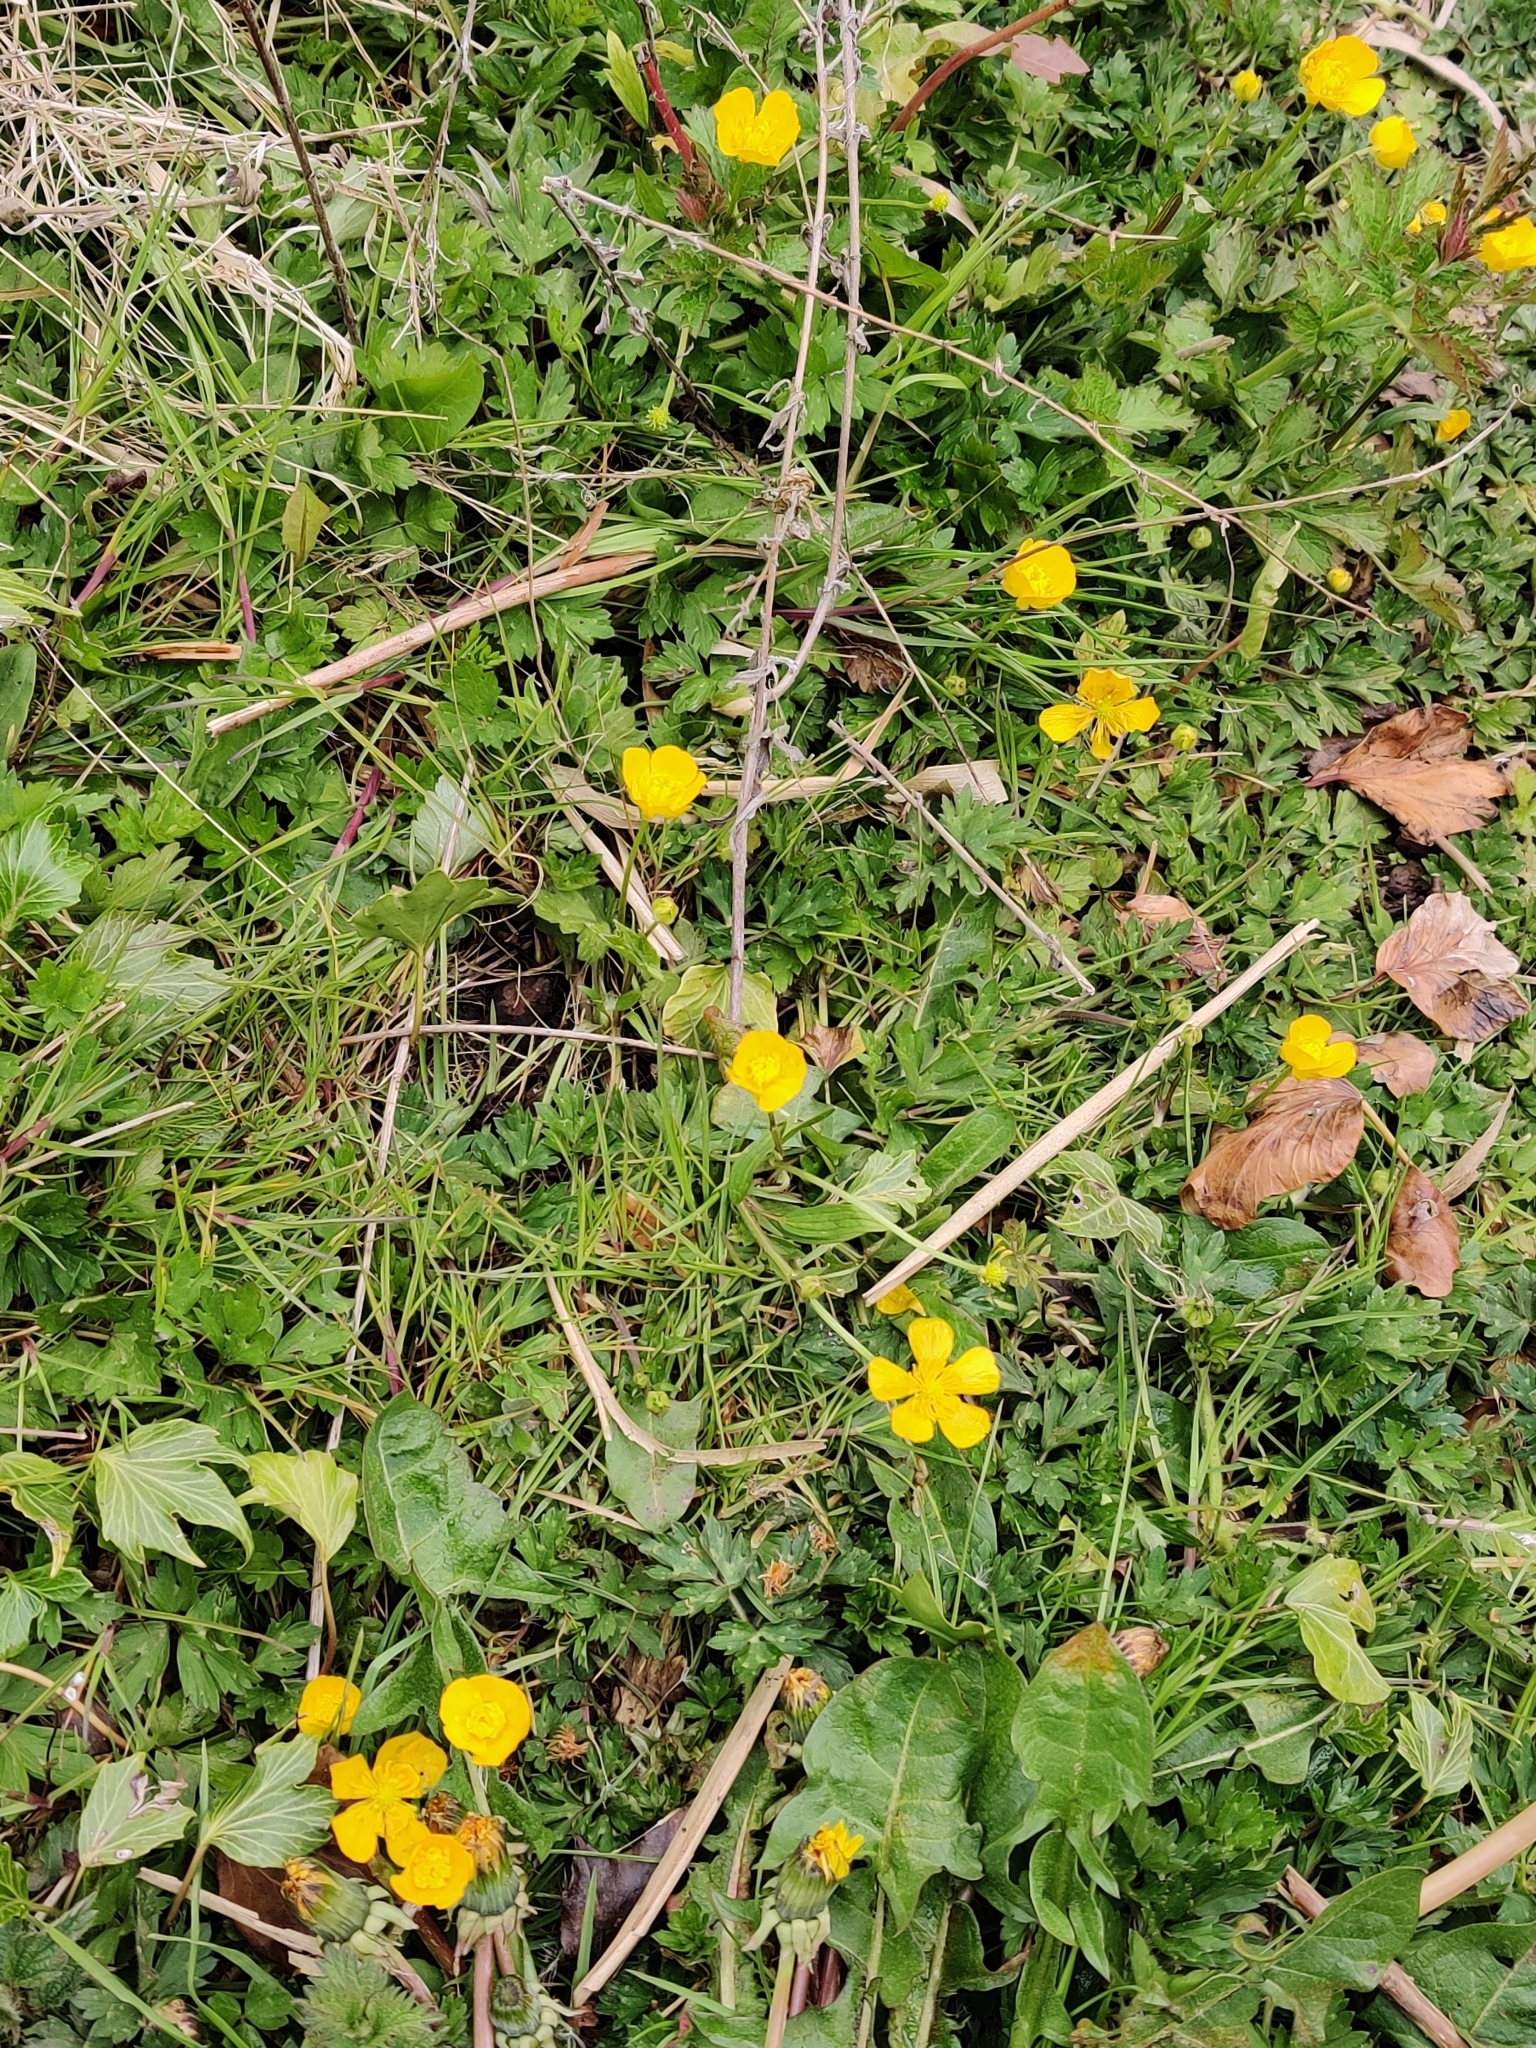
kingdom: Plantae
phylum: Tracheophyta
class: Magnoliopsida
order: Ranunculales
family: Ranunculaceae
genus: Ranunculus
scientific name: Ranunculus repens
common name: Creeping buttercup
